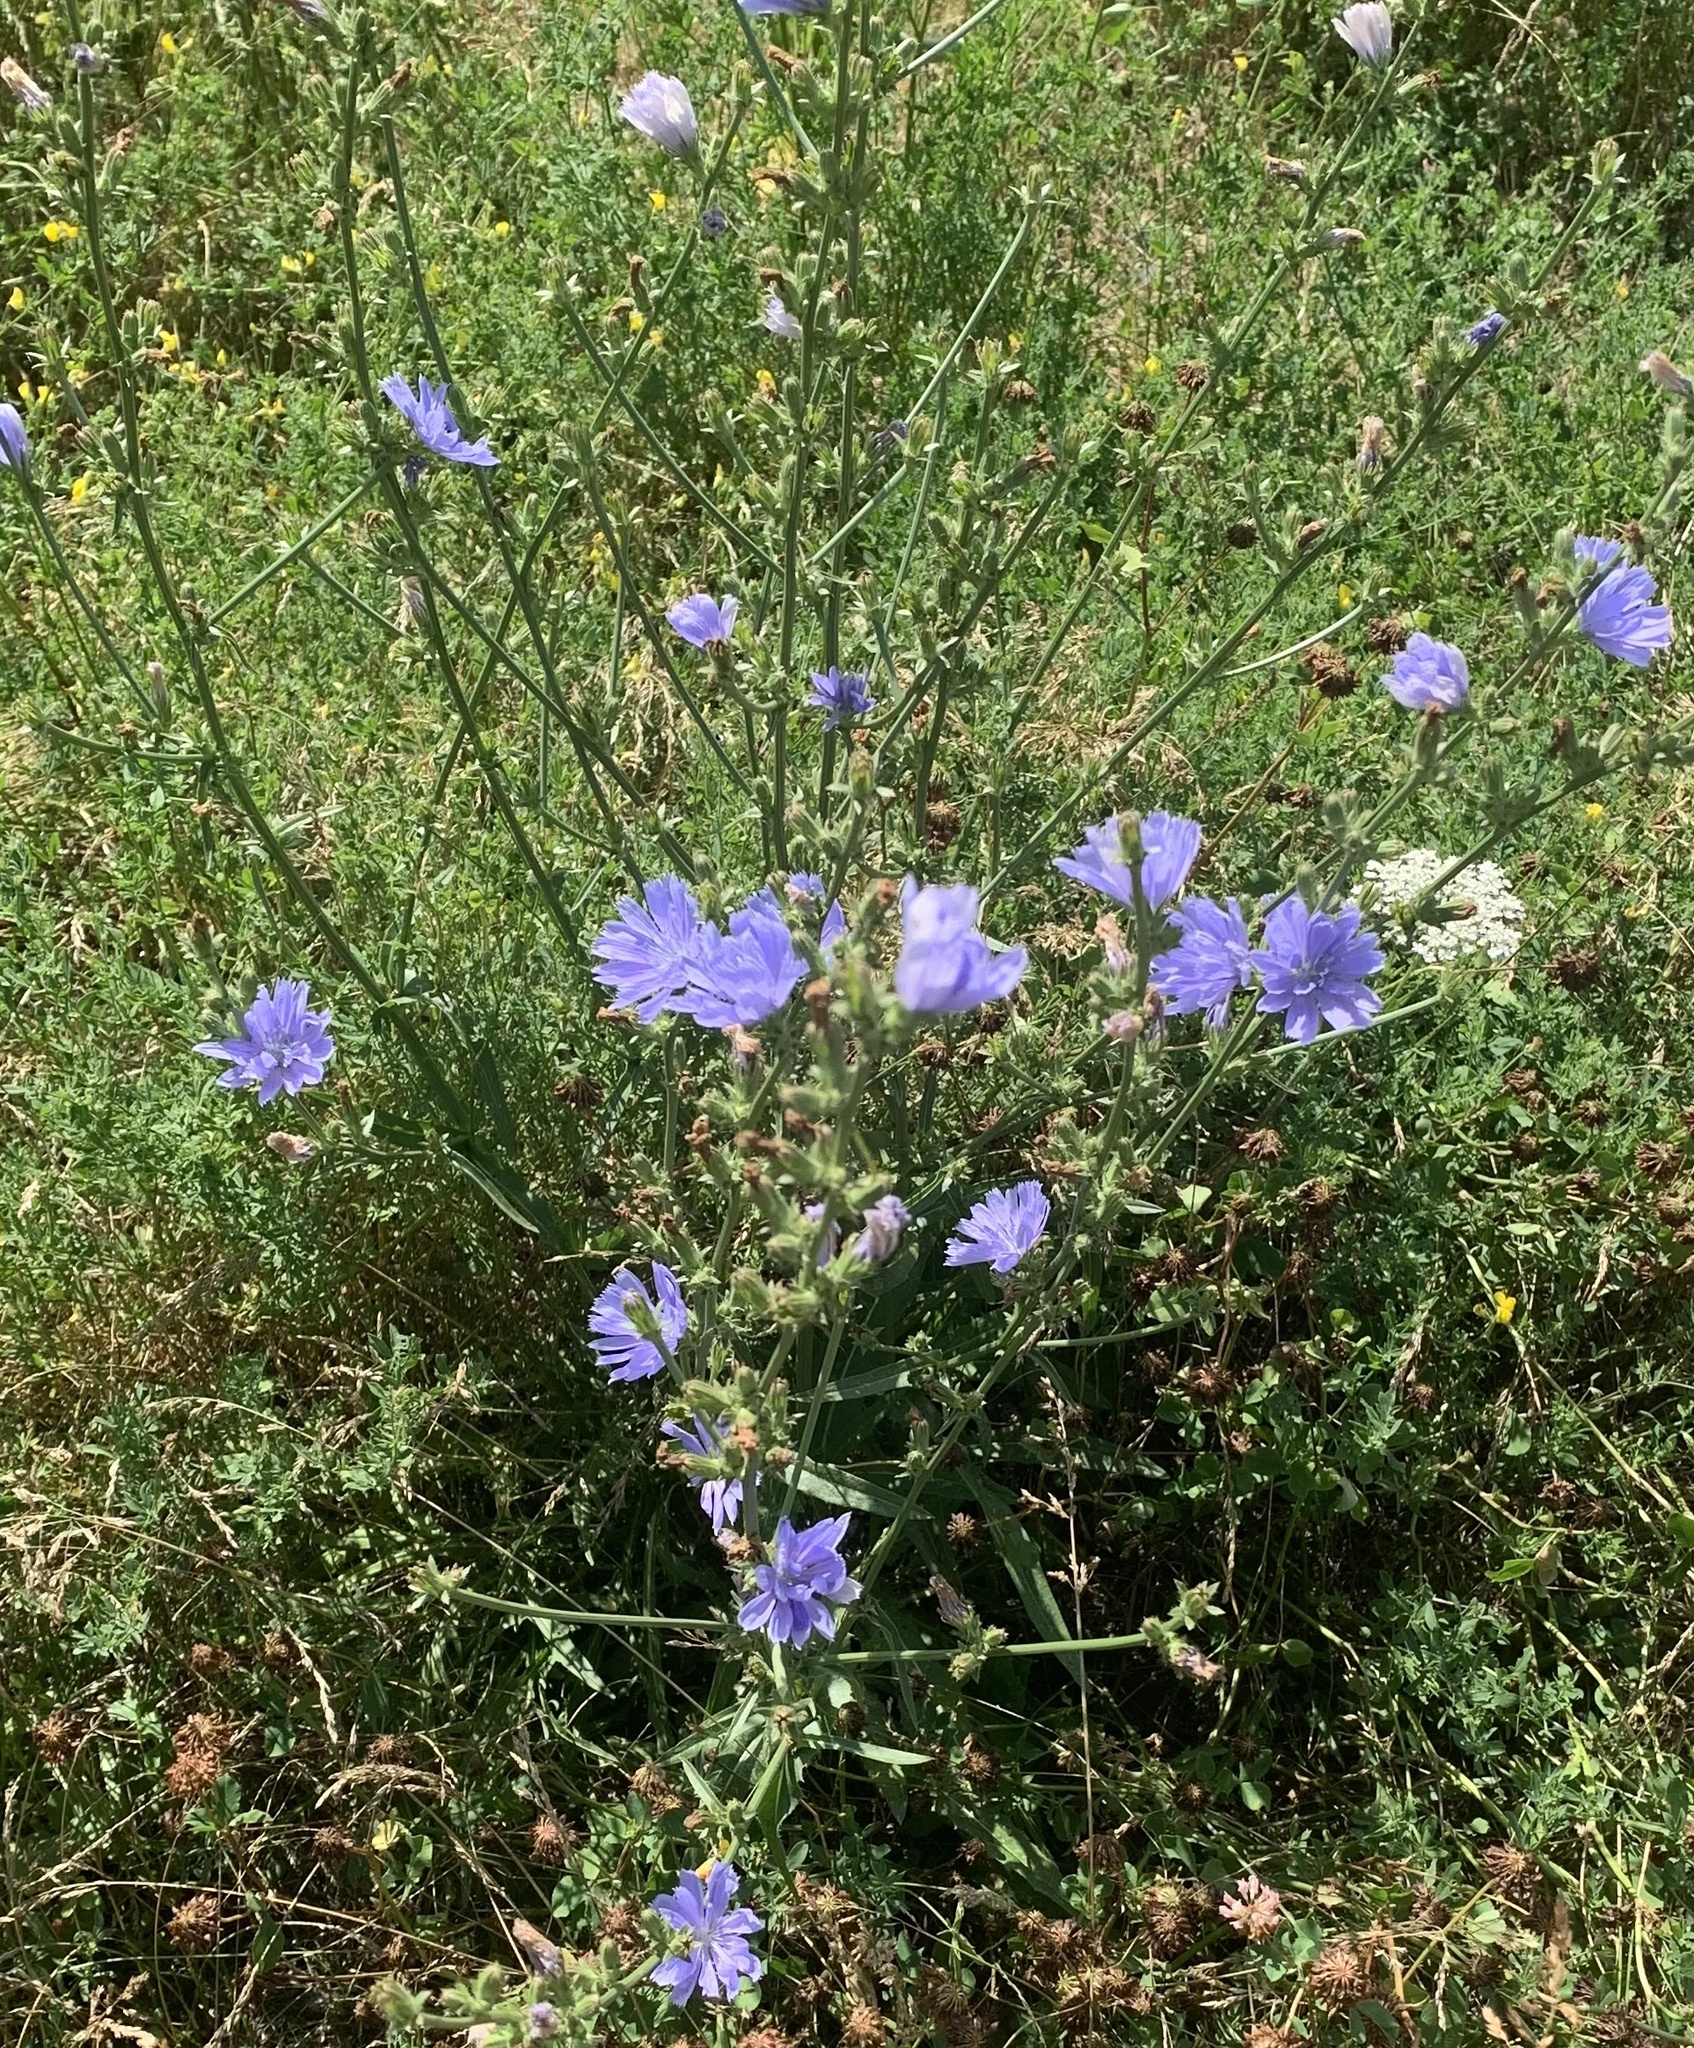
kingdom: Plantae
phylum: Tracheophyta
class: Magnoliopsida
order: Asterales
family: Asteraceae
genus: Cichorium
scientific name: Cichorium intybus
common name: Chicory
